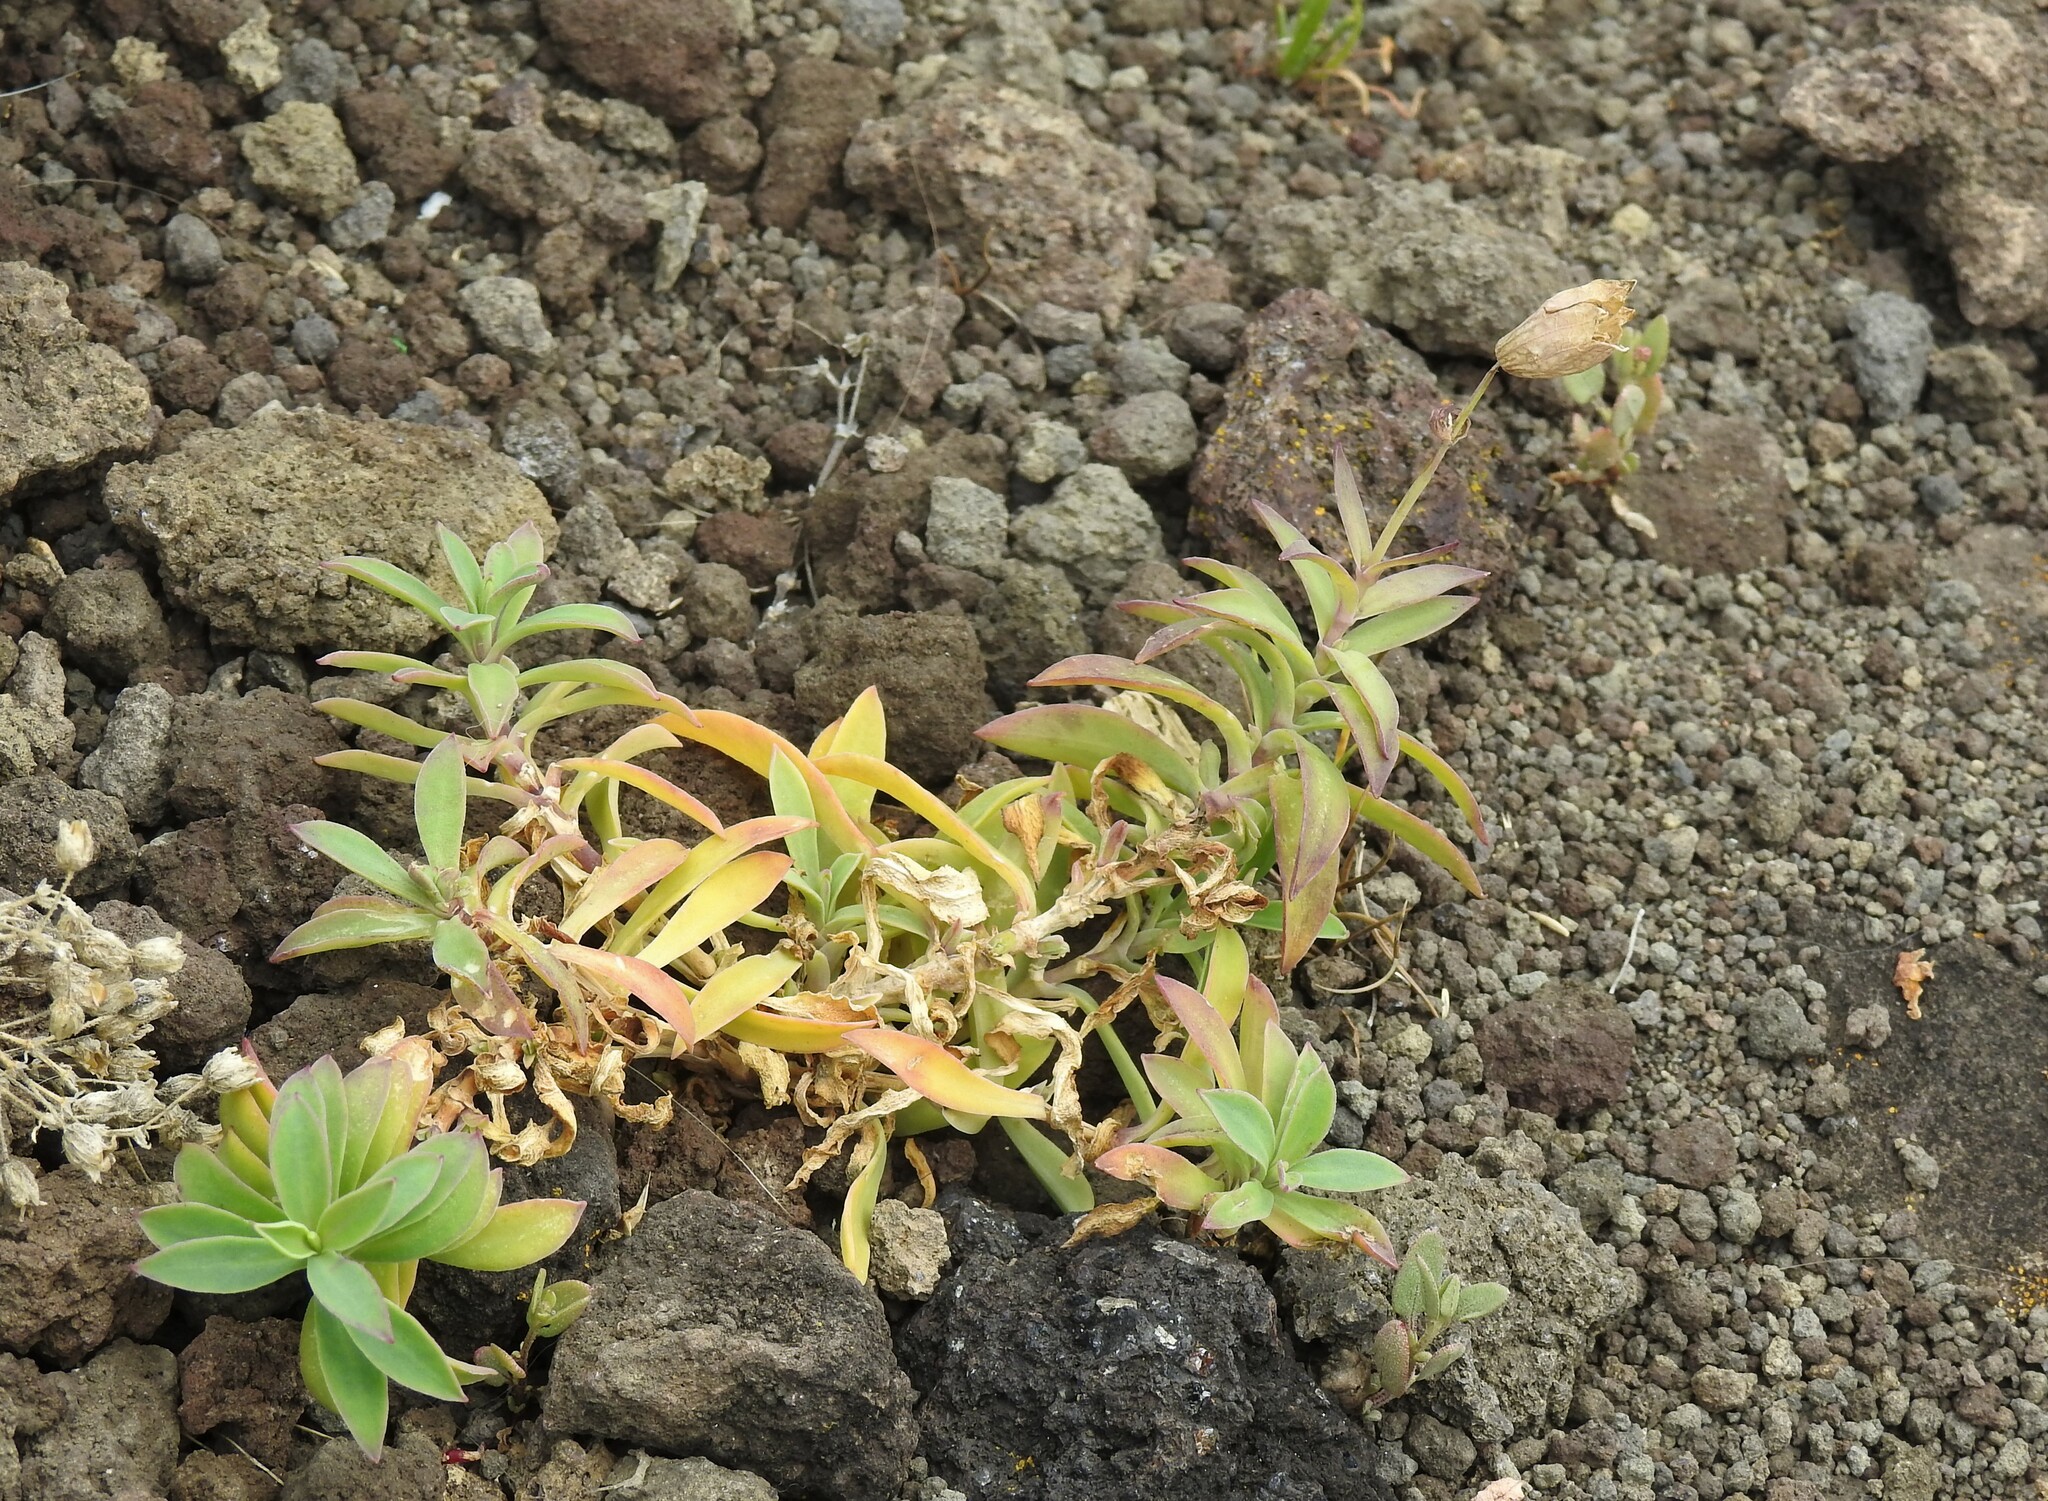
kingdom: Plantae
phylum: Tracheophyta
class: Magnoliopsida
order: Caryophyllales
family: Caryophyllaceae
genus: Silene
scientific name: Silene uniflora
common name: Sea campion
